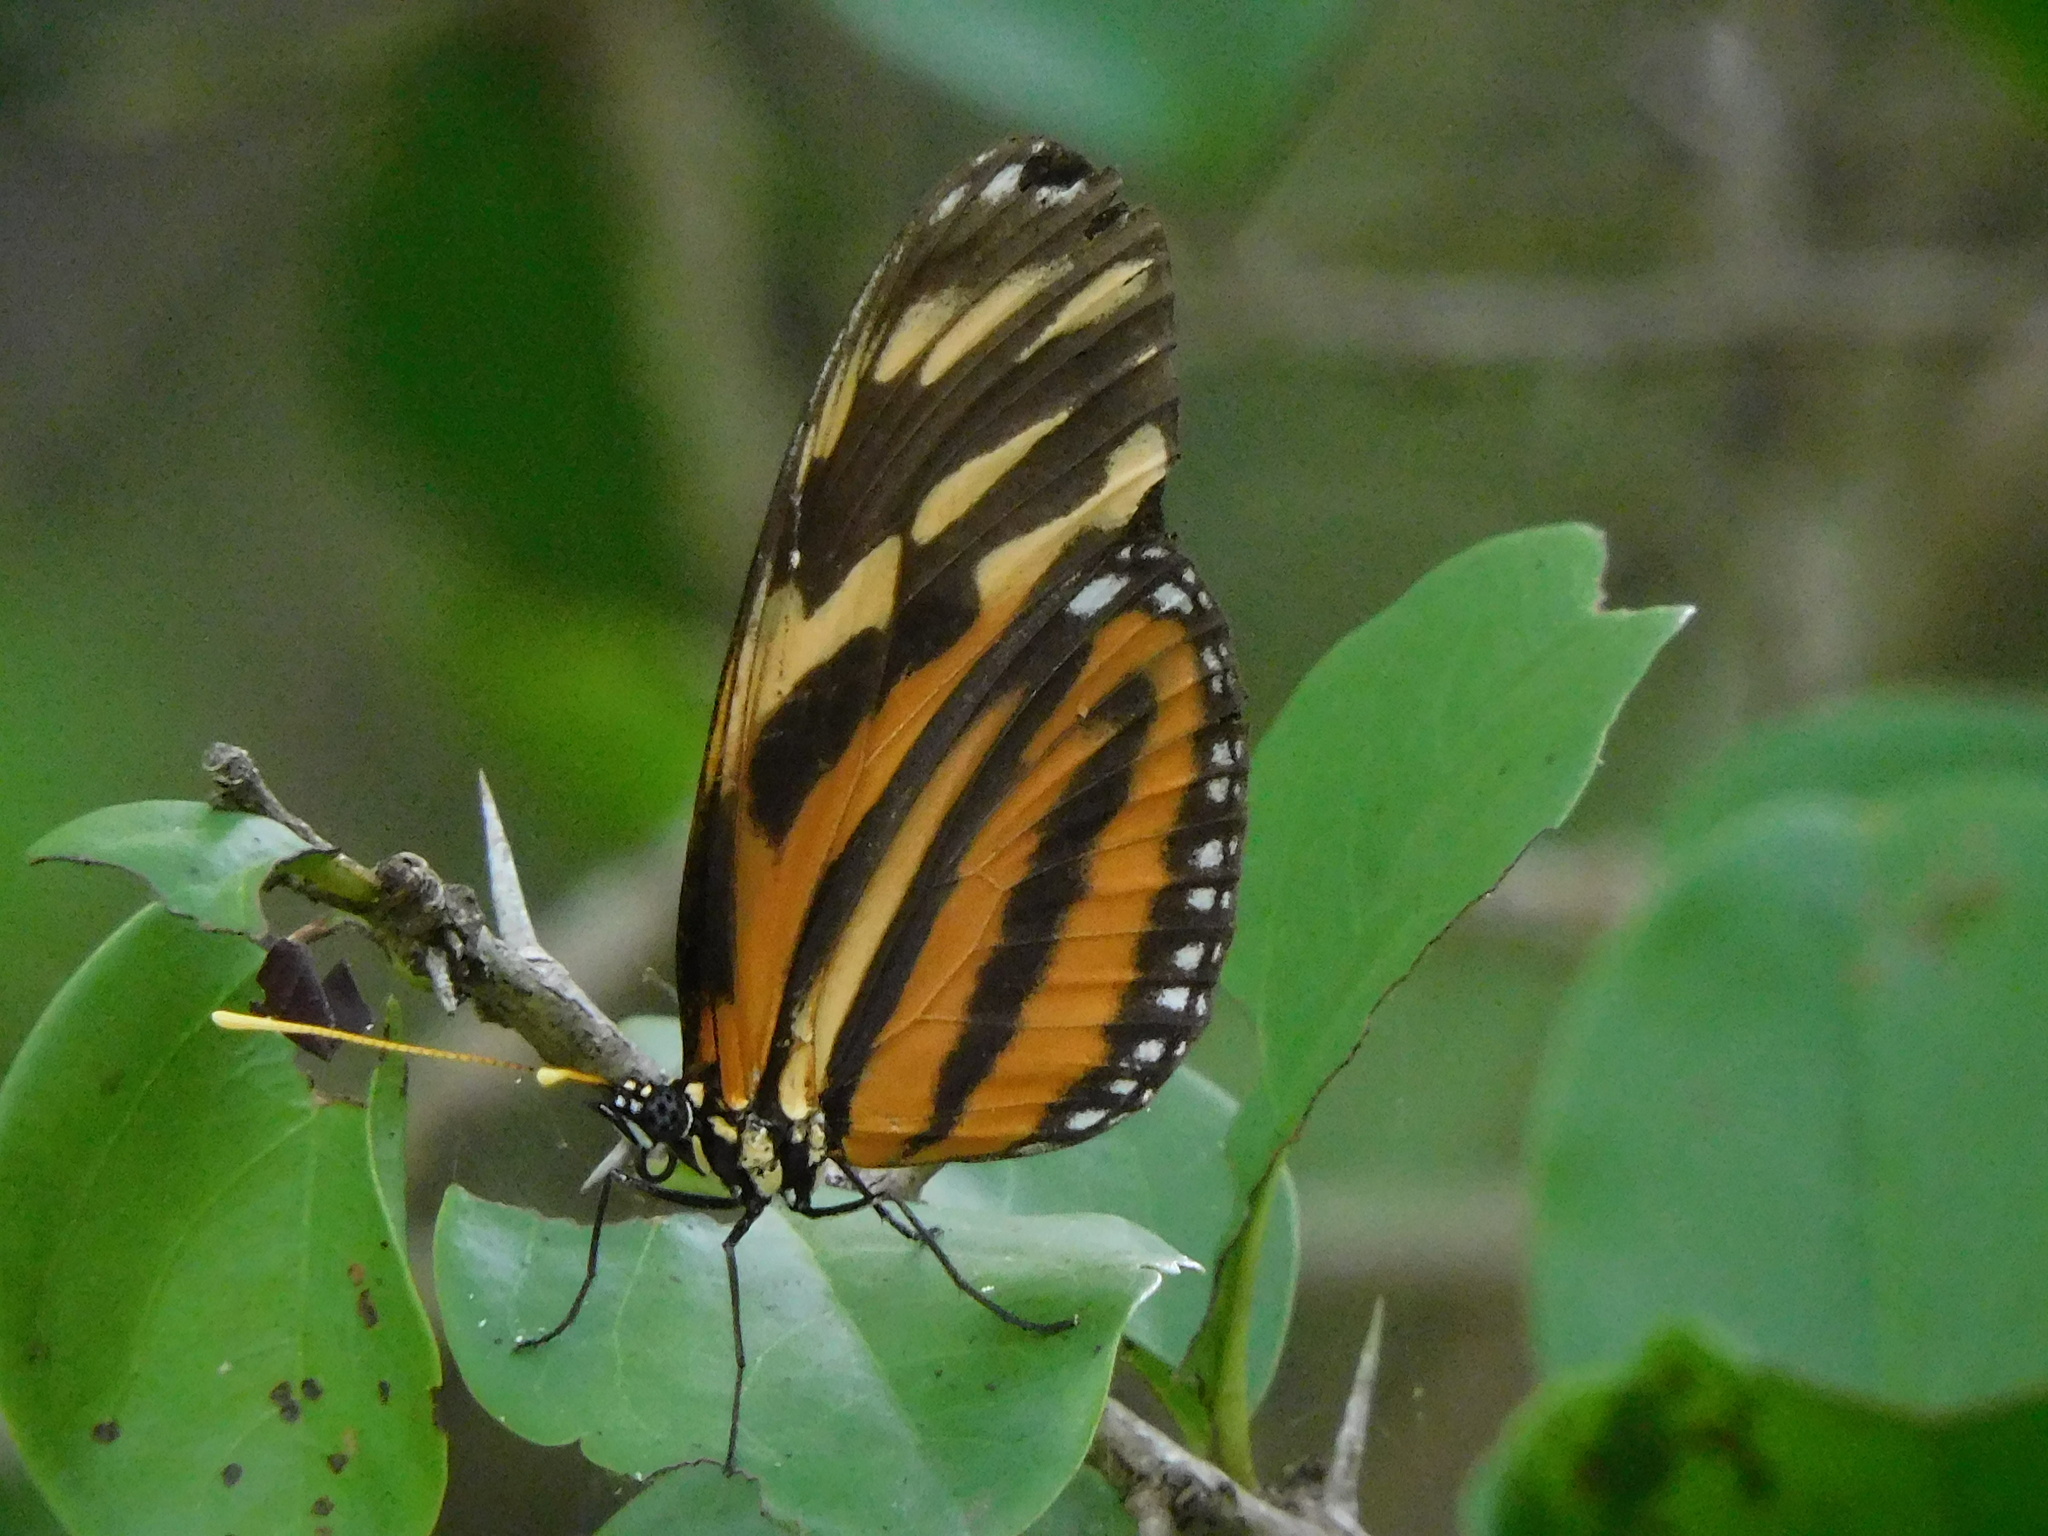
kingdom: Animalia
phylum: Arthropoda
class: Insecta
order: Lepidoptera
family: Nymphalidae
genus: Eueides
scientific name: Eueides isabella
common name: Isabella's longwing
